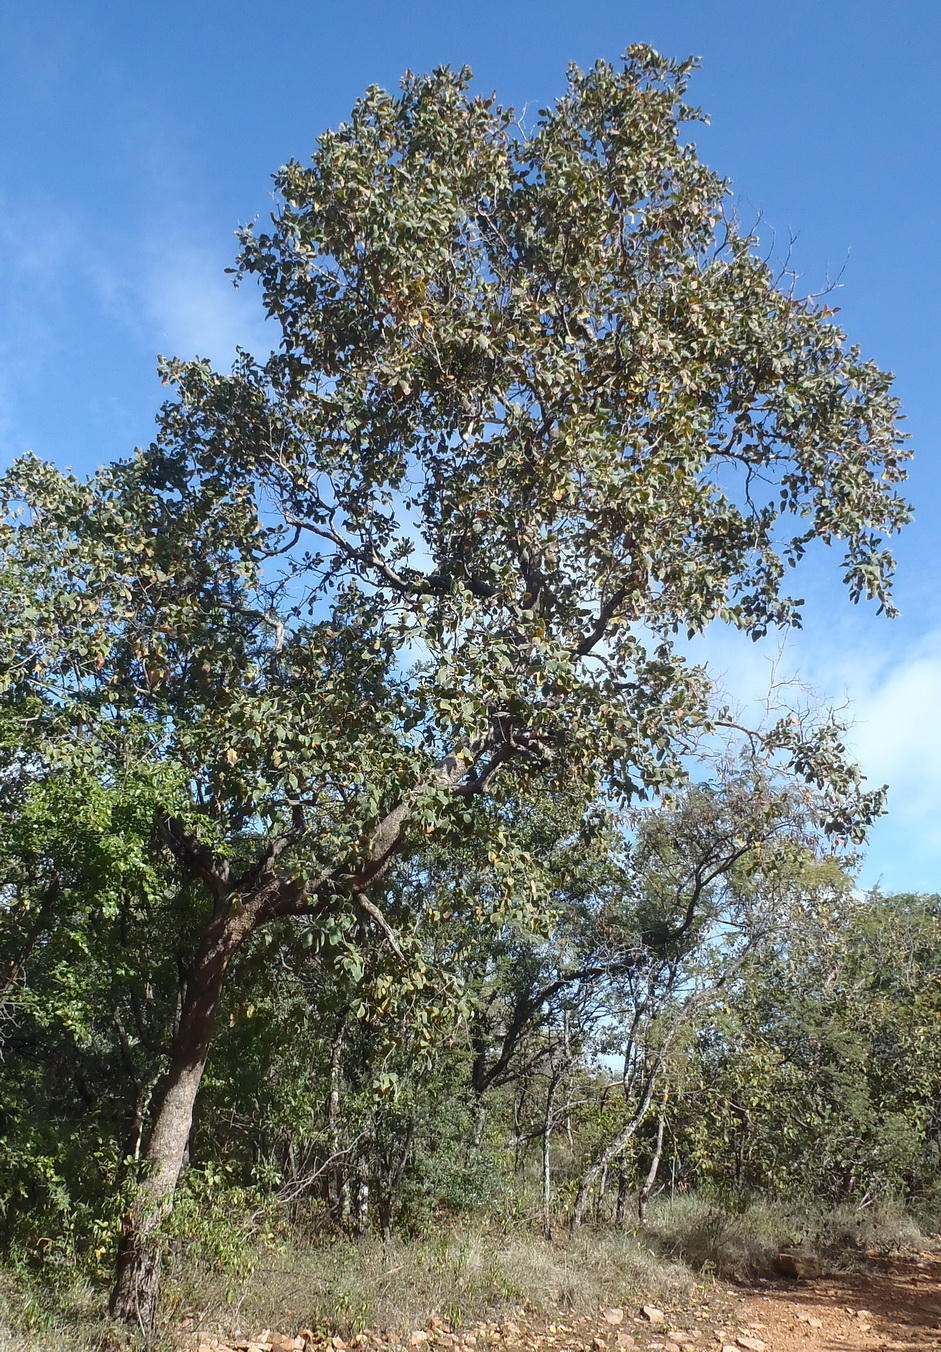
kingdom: Plantae
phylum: Tracheophyta
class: Magnoliopsida
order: Myrtales
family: Combretaceae
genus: Combretum
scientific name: Combretum molle
